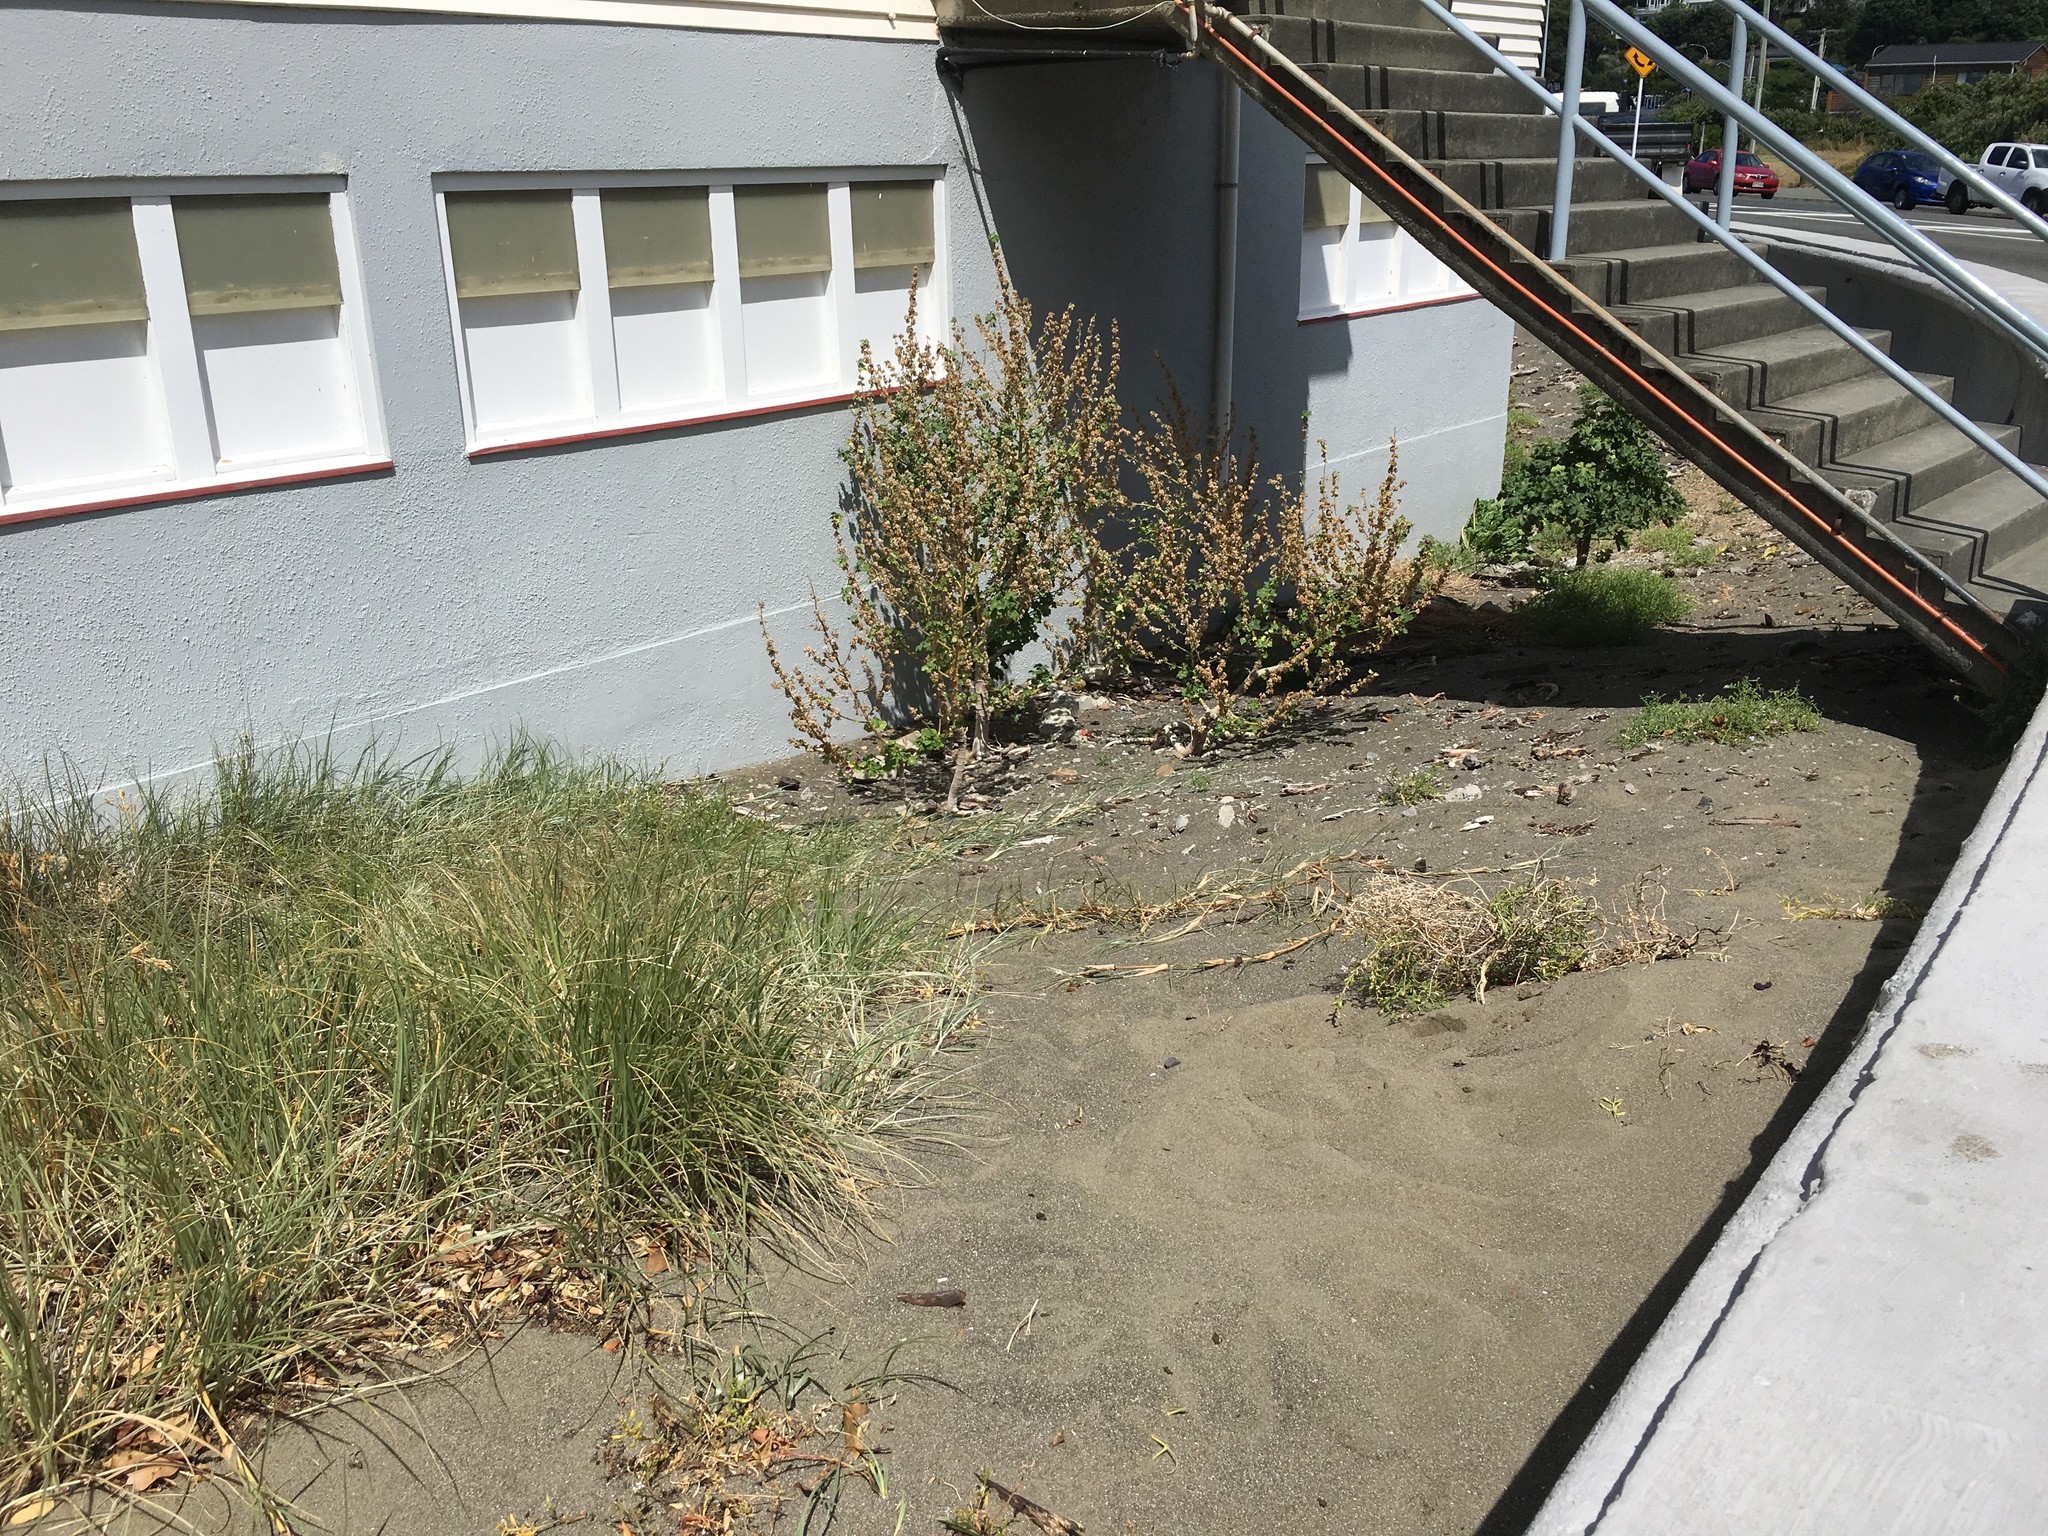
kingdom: Plantae
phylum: Tracheophyta
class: Magnoliopsida
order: Malvales
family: Malvaceae
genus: Malva
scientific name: Malva arborea
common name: Tree mallow
